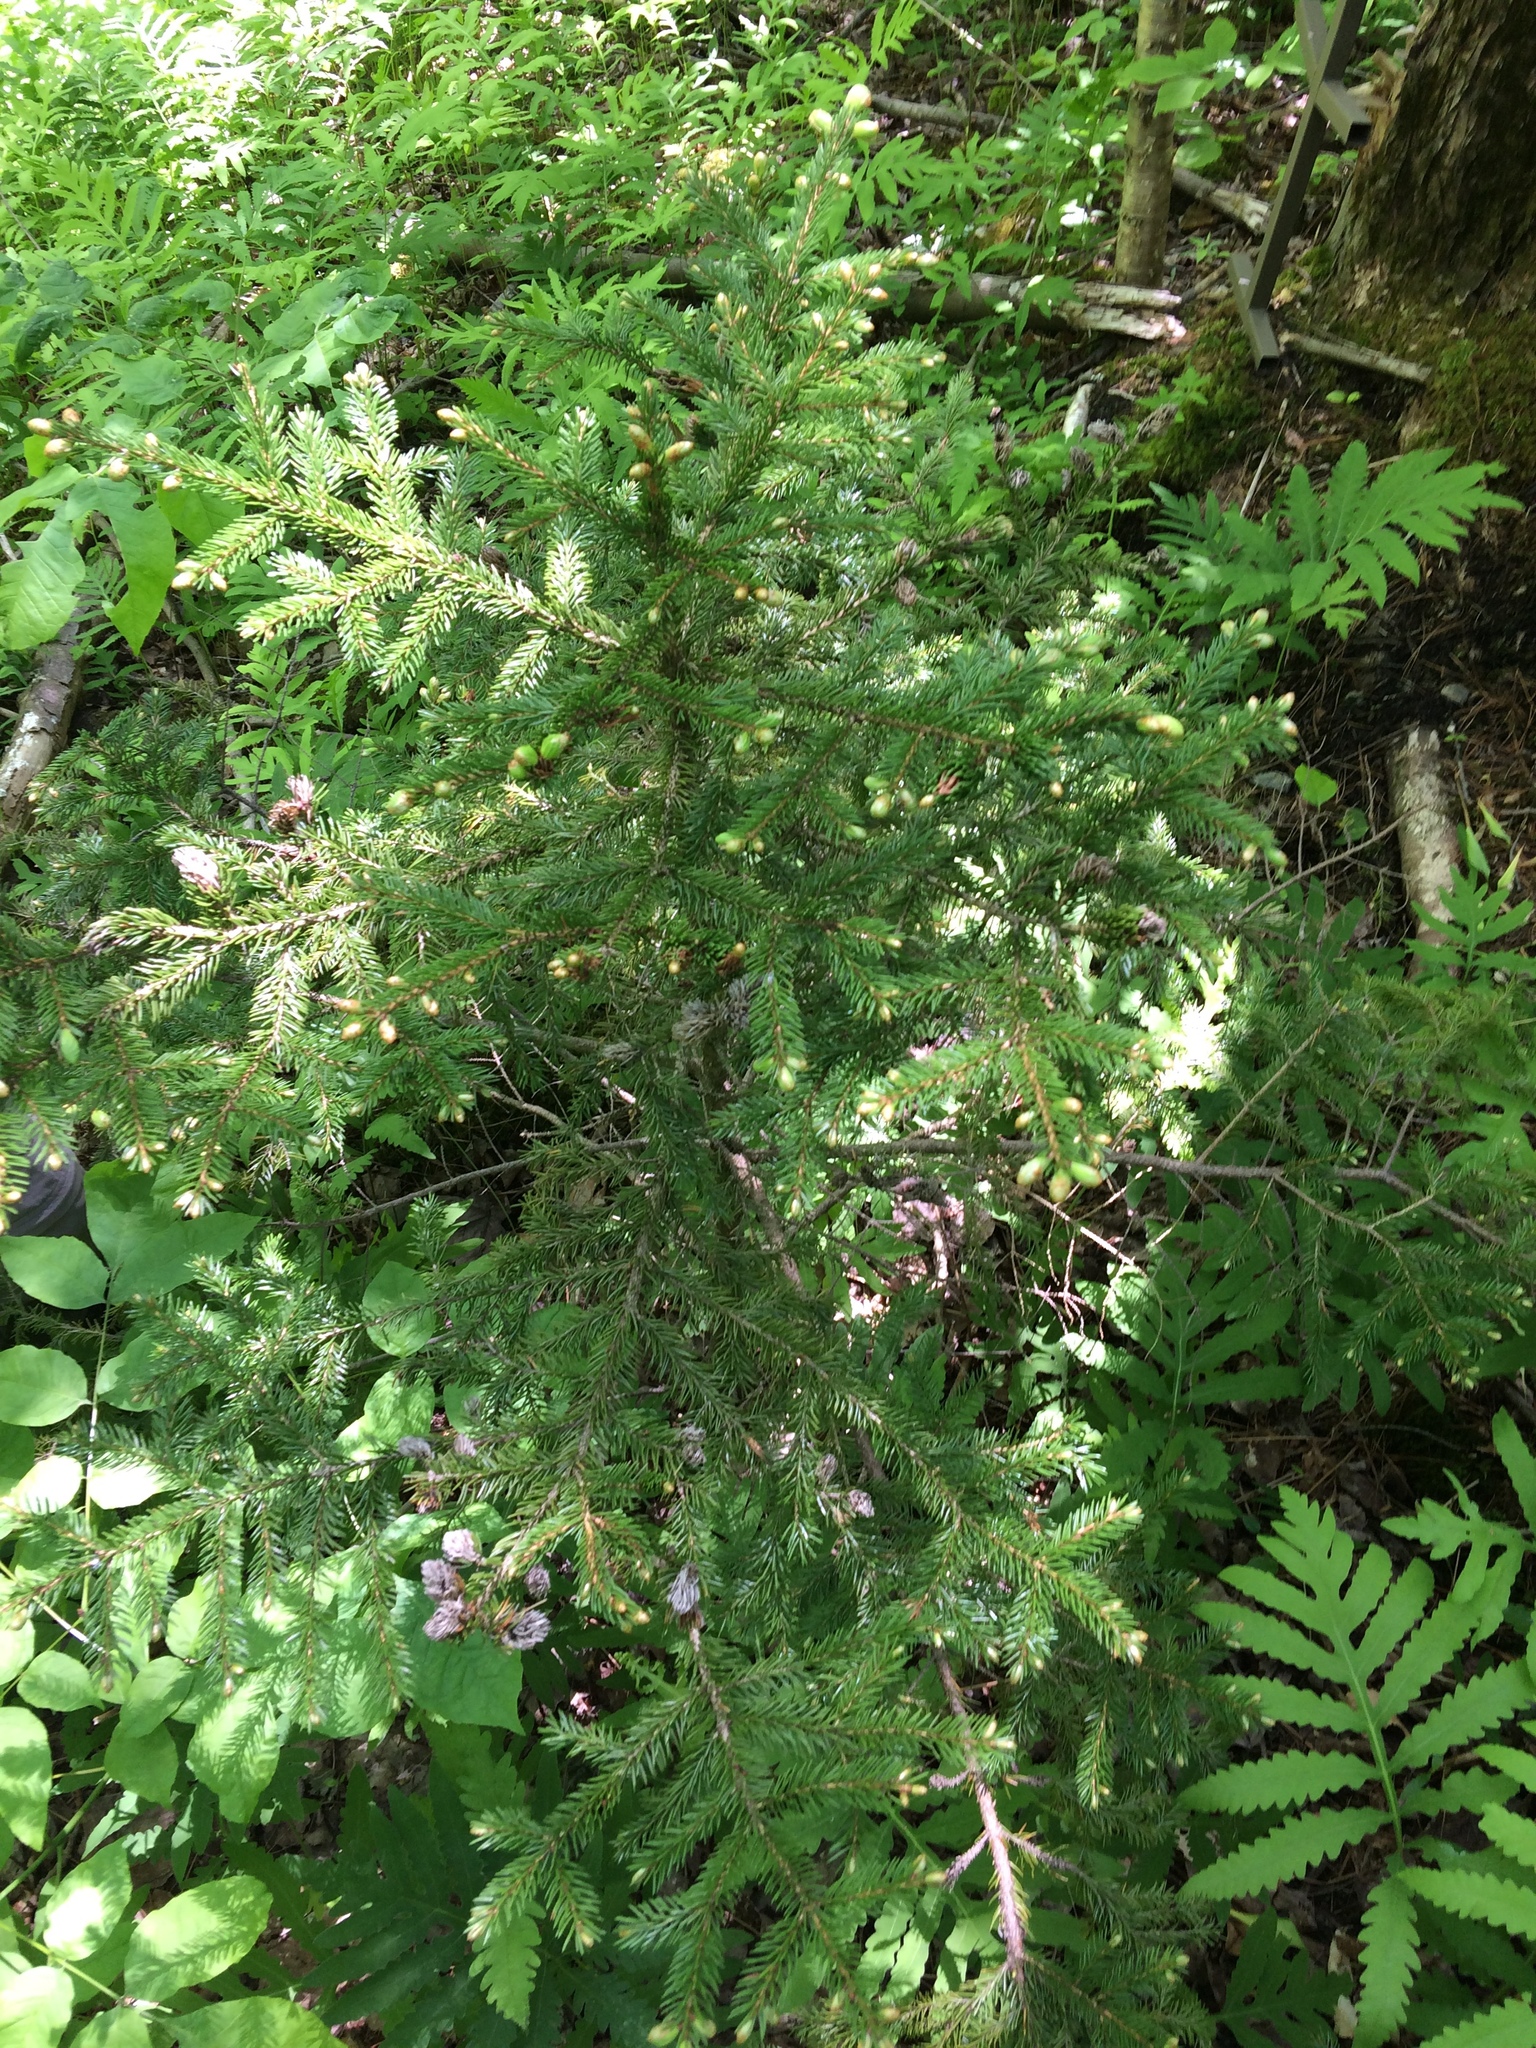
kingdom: Plantae
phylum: Tracheophyta
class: Pinopsida
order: Pinales
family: Pinaceae
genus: Picea
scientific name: Picea rubens
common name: Red spruce
